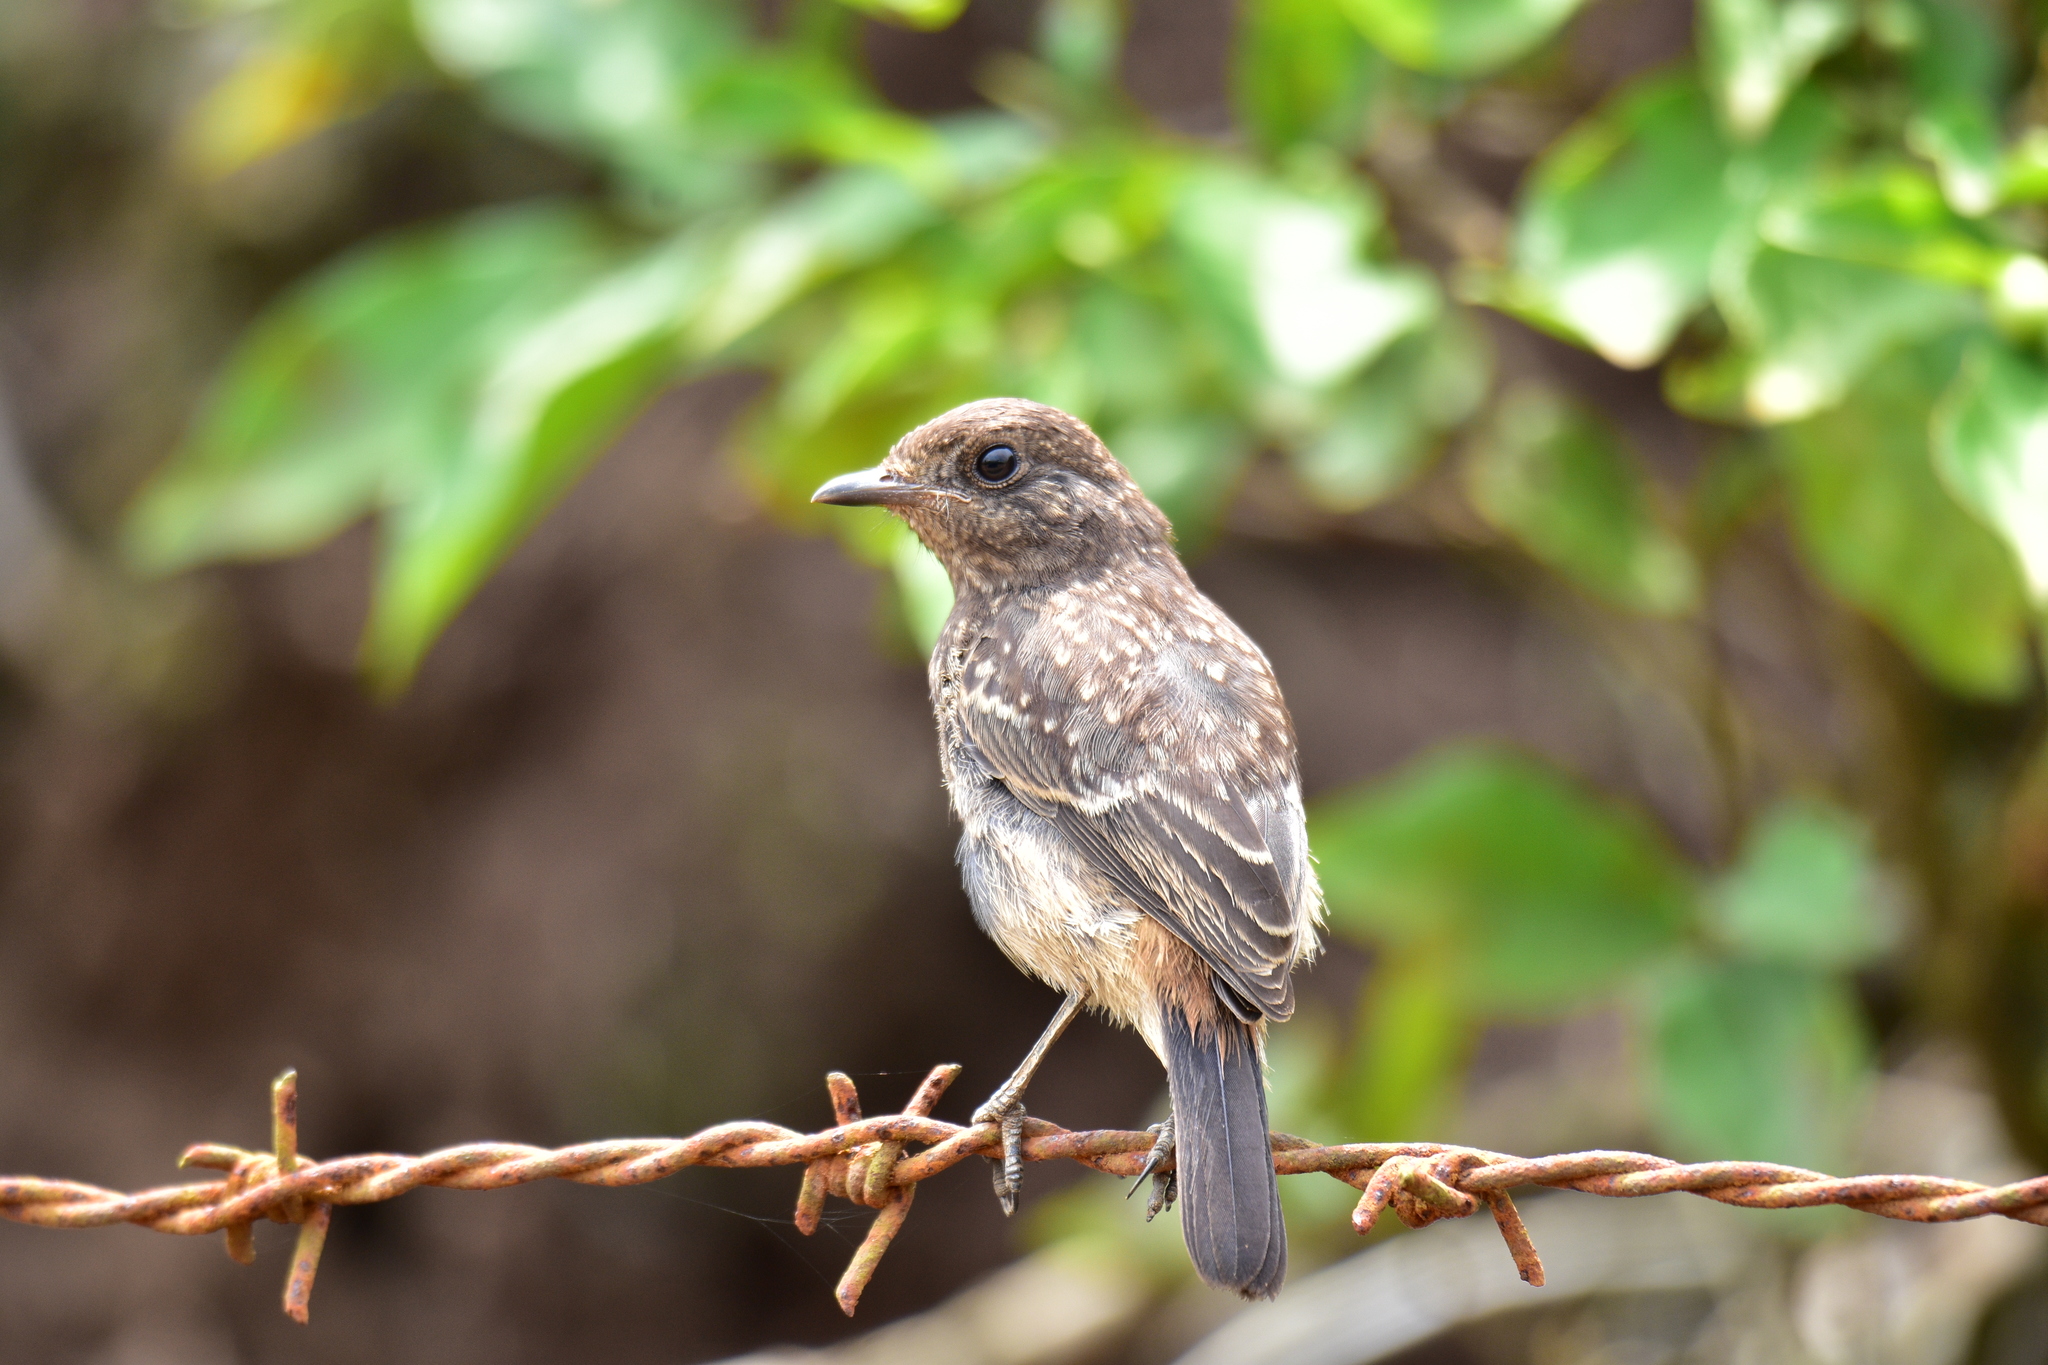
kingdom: Animalia
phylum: Chordata
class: Aves
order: Passeriformes
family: Muscicapidae
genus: Saxicola
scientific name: Saxicola caprata
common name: Pied bush chat
